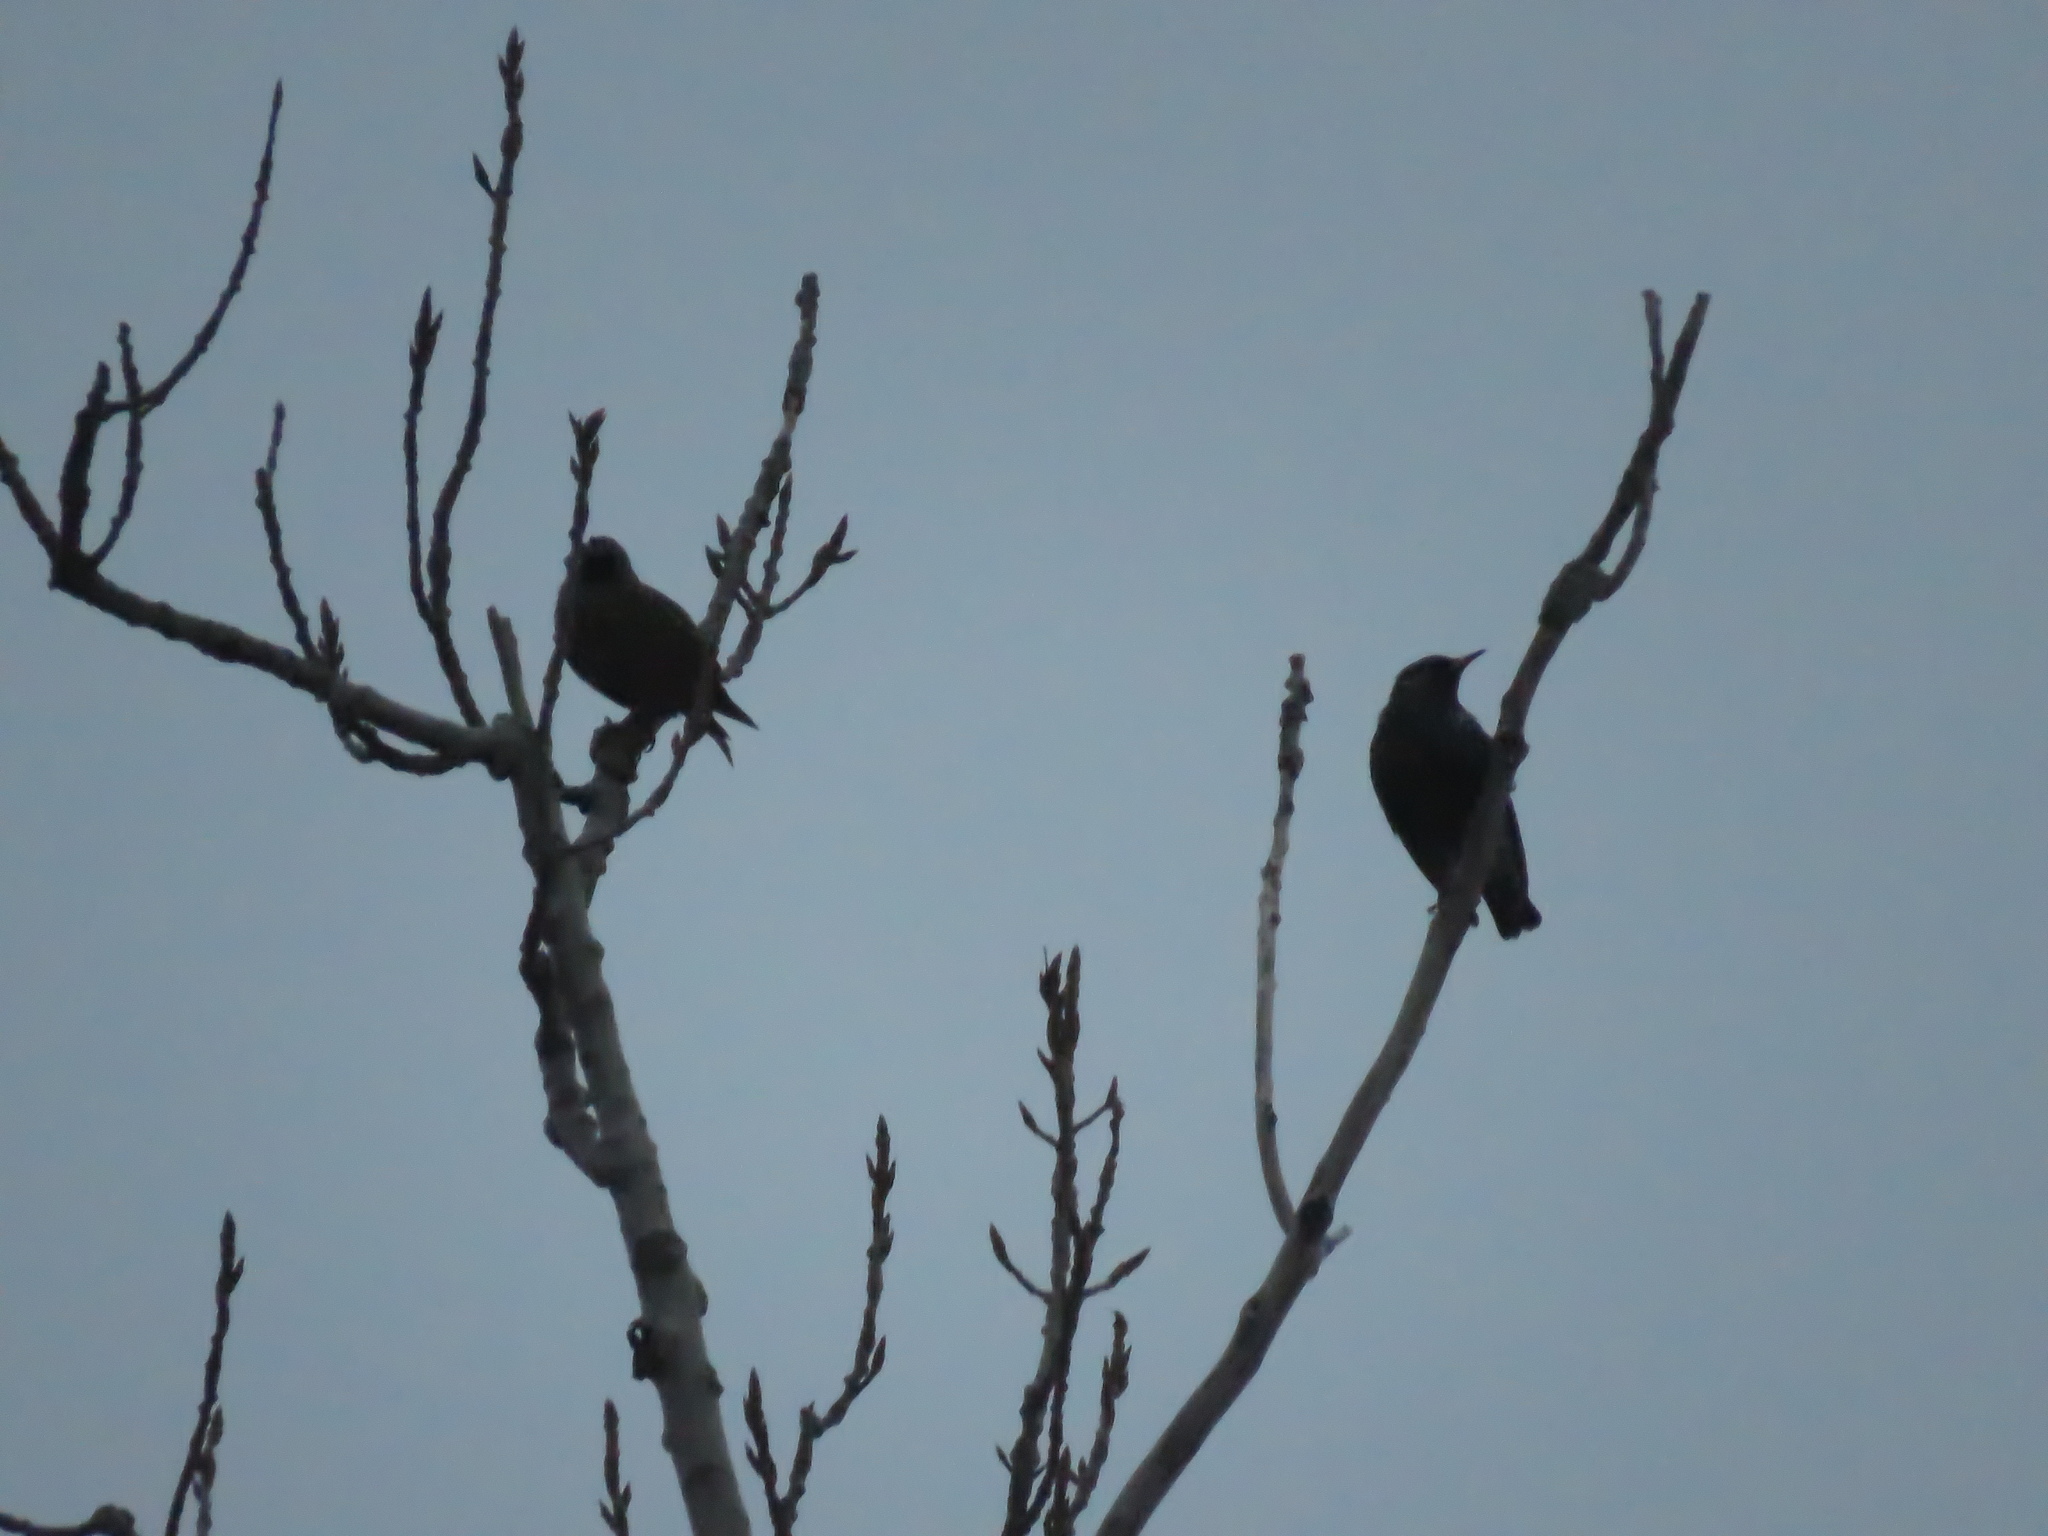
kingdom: Animalia
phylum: Chordata
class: Aves
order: Passeriformes
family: Sturnidae
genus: Sturnus
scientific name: Sturnus vulgaris
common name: Common starling
